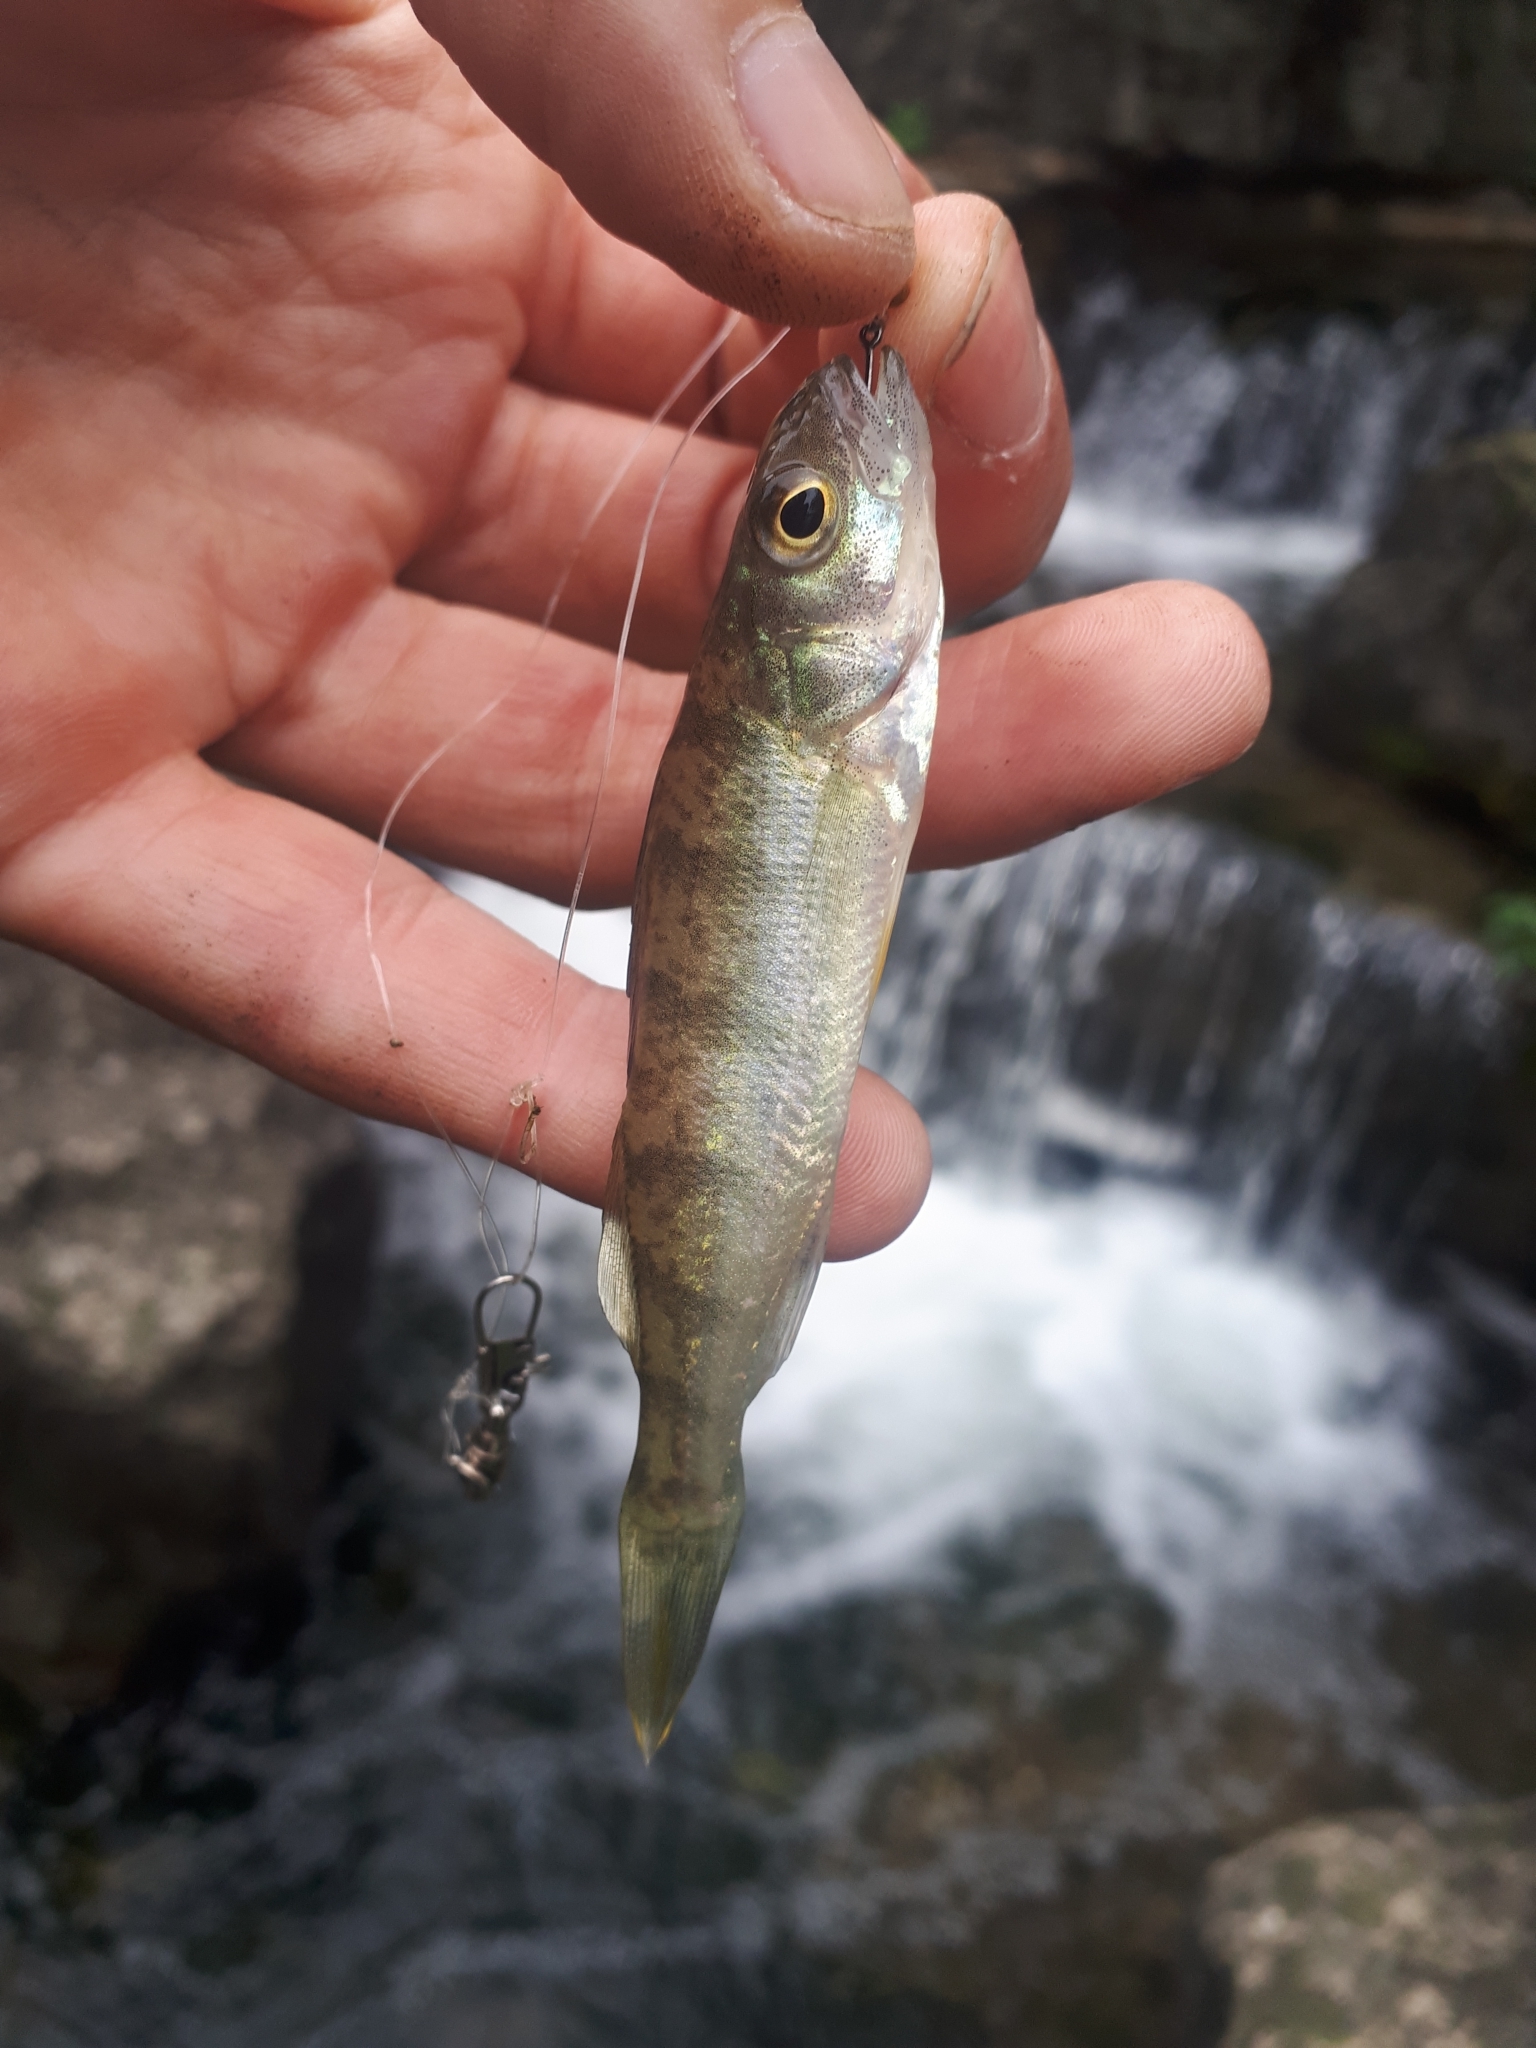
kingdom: Animalia
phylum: Chordata
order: Perciformes
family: Percidae
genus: Perca
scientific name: Perca flavescens
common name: Yellow perch
